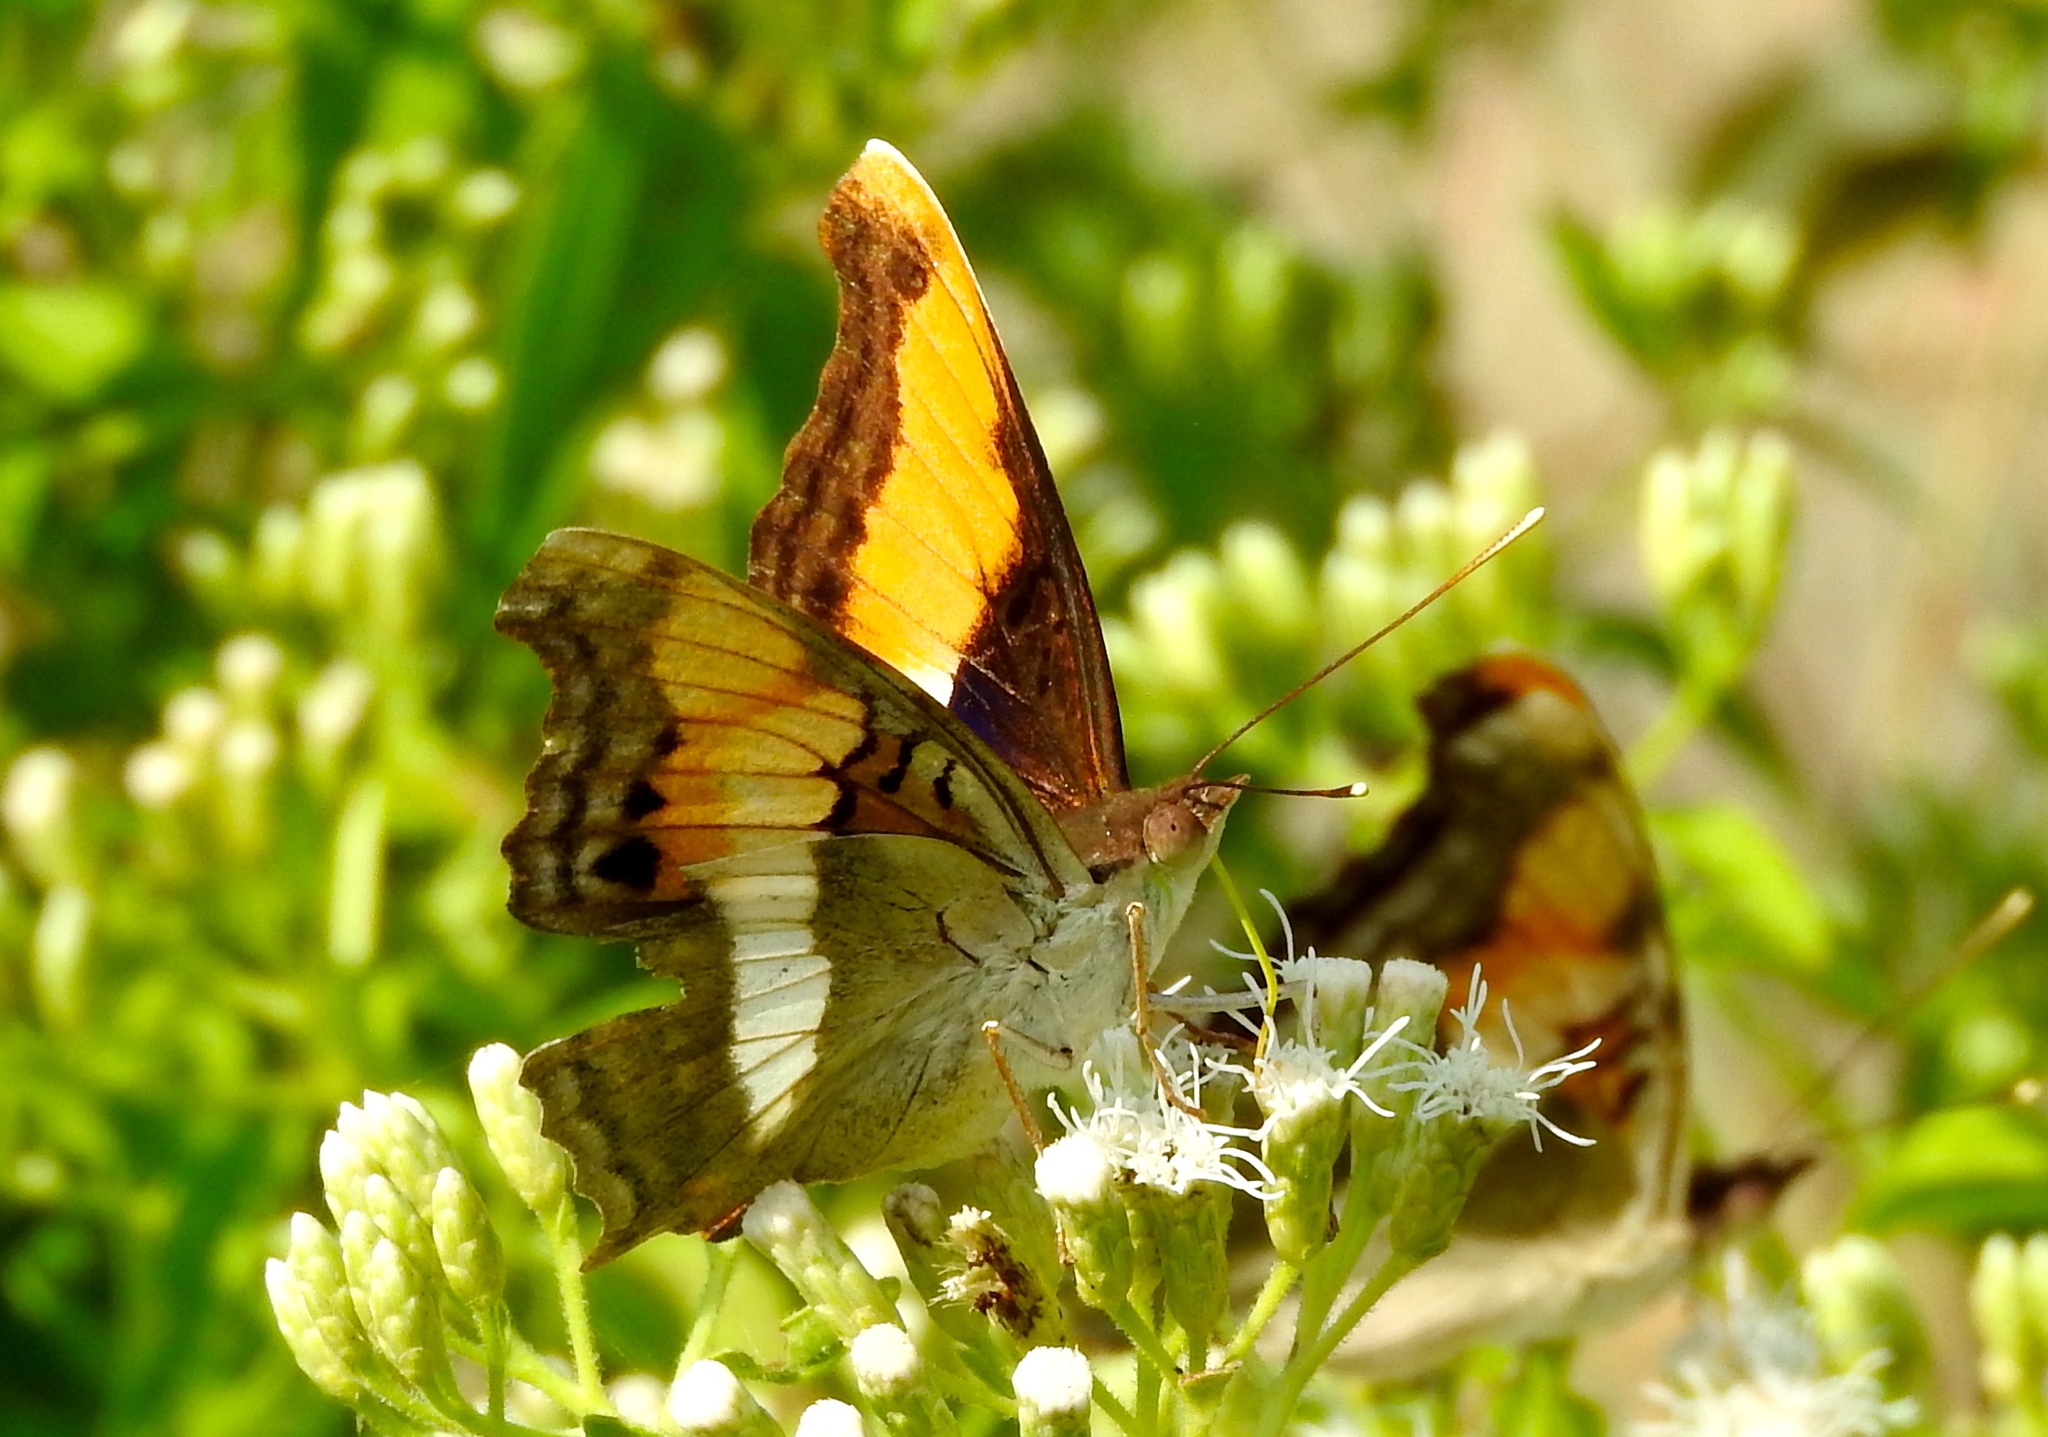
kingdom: Animalia
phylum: Arthropoda
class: Insecta
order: Lepidoptera
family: Nymphalidae
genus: Doxocopa
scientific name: Doxocopa laure
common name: Silver emperor
